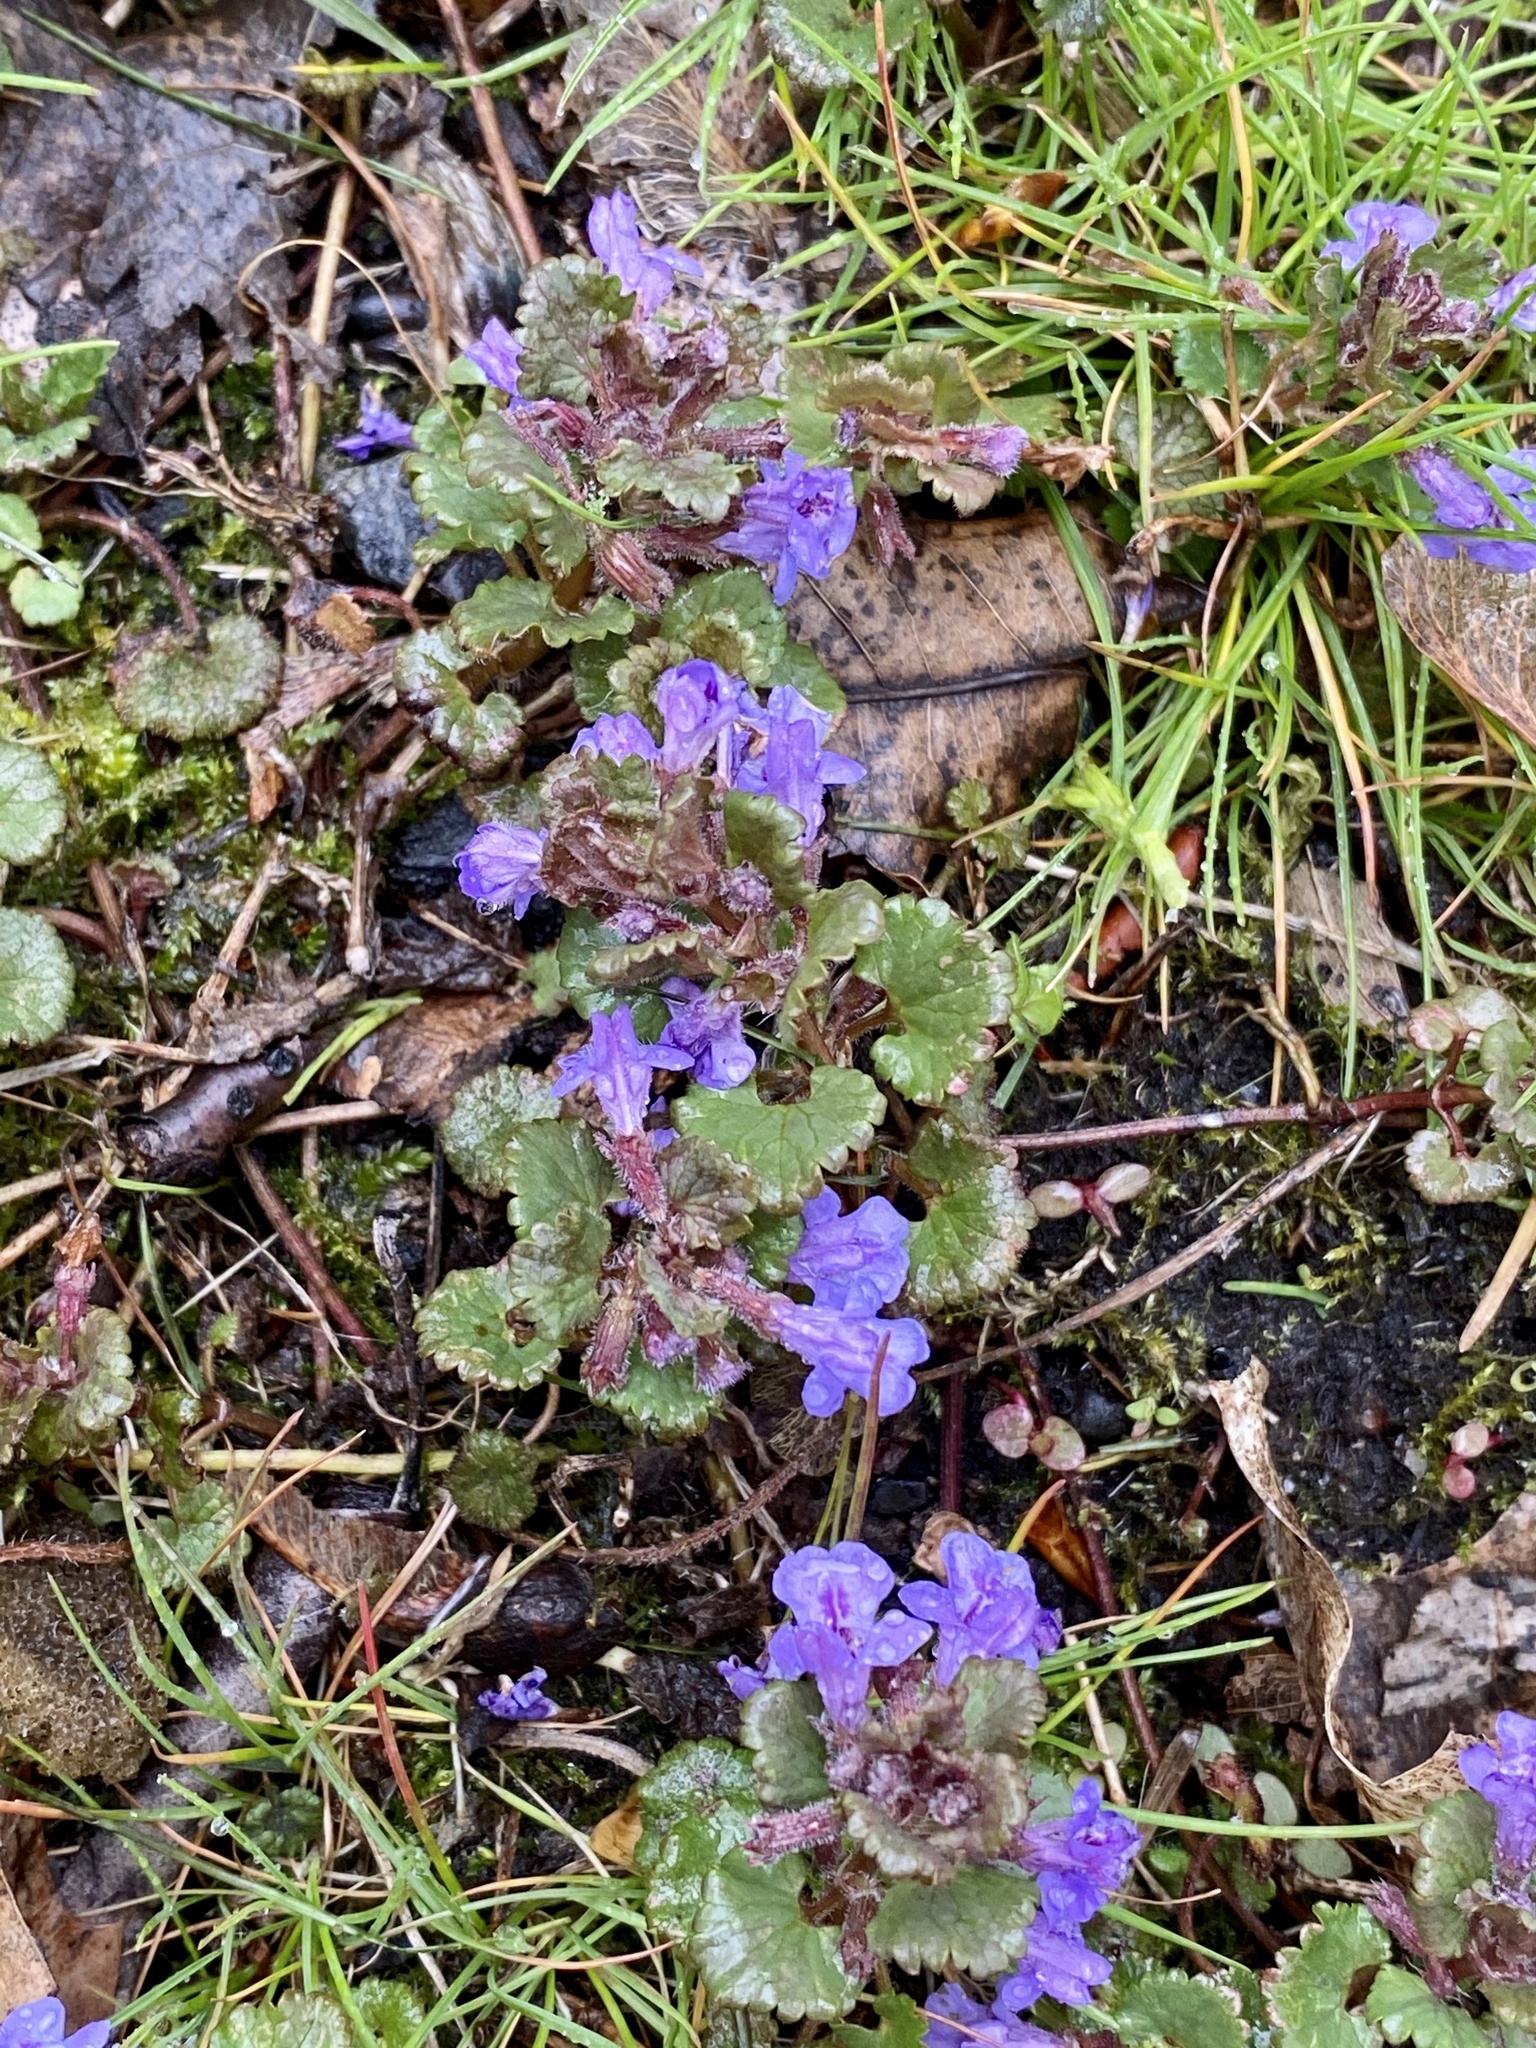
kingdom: Plantae
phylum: Tracheophyta
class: Magnoliopsida
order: Lamiales
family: Lamiaceae
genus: Glechoma
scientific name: Glechoma hederacea
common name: Ground ivy
